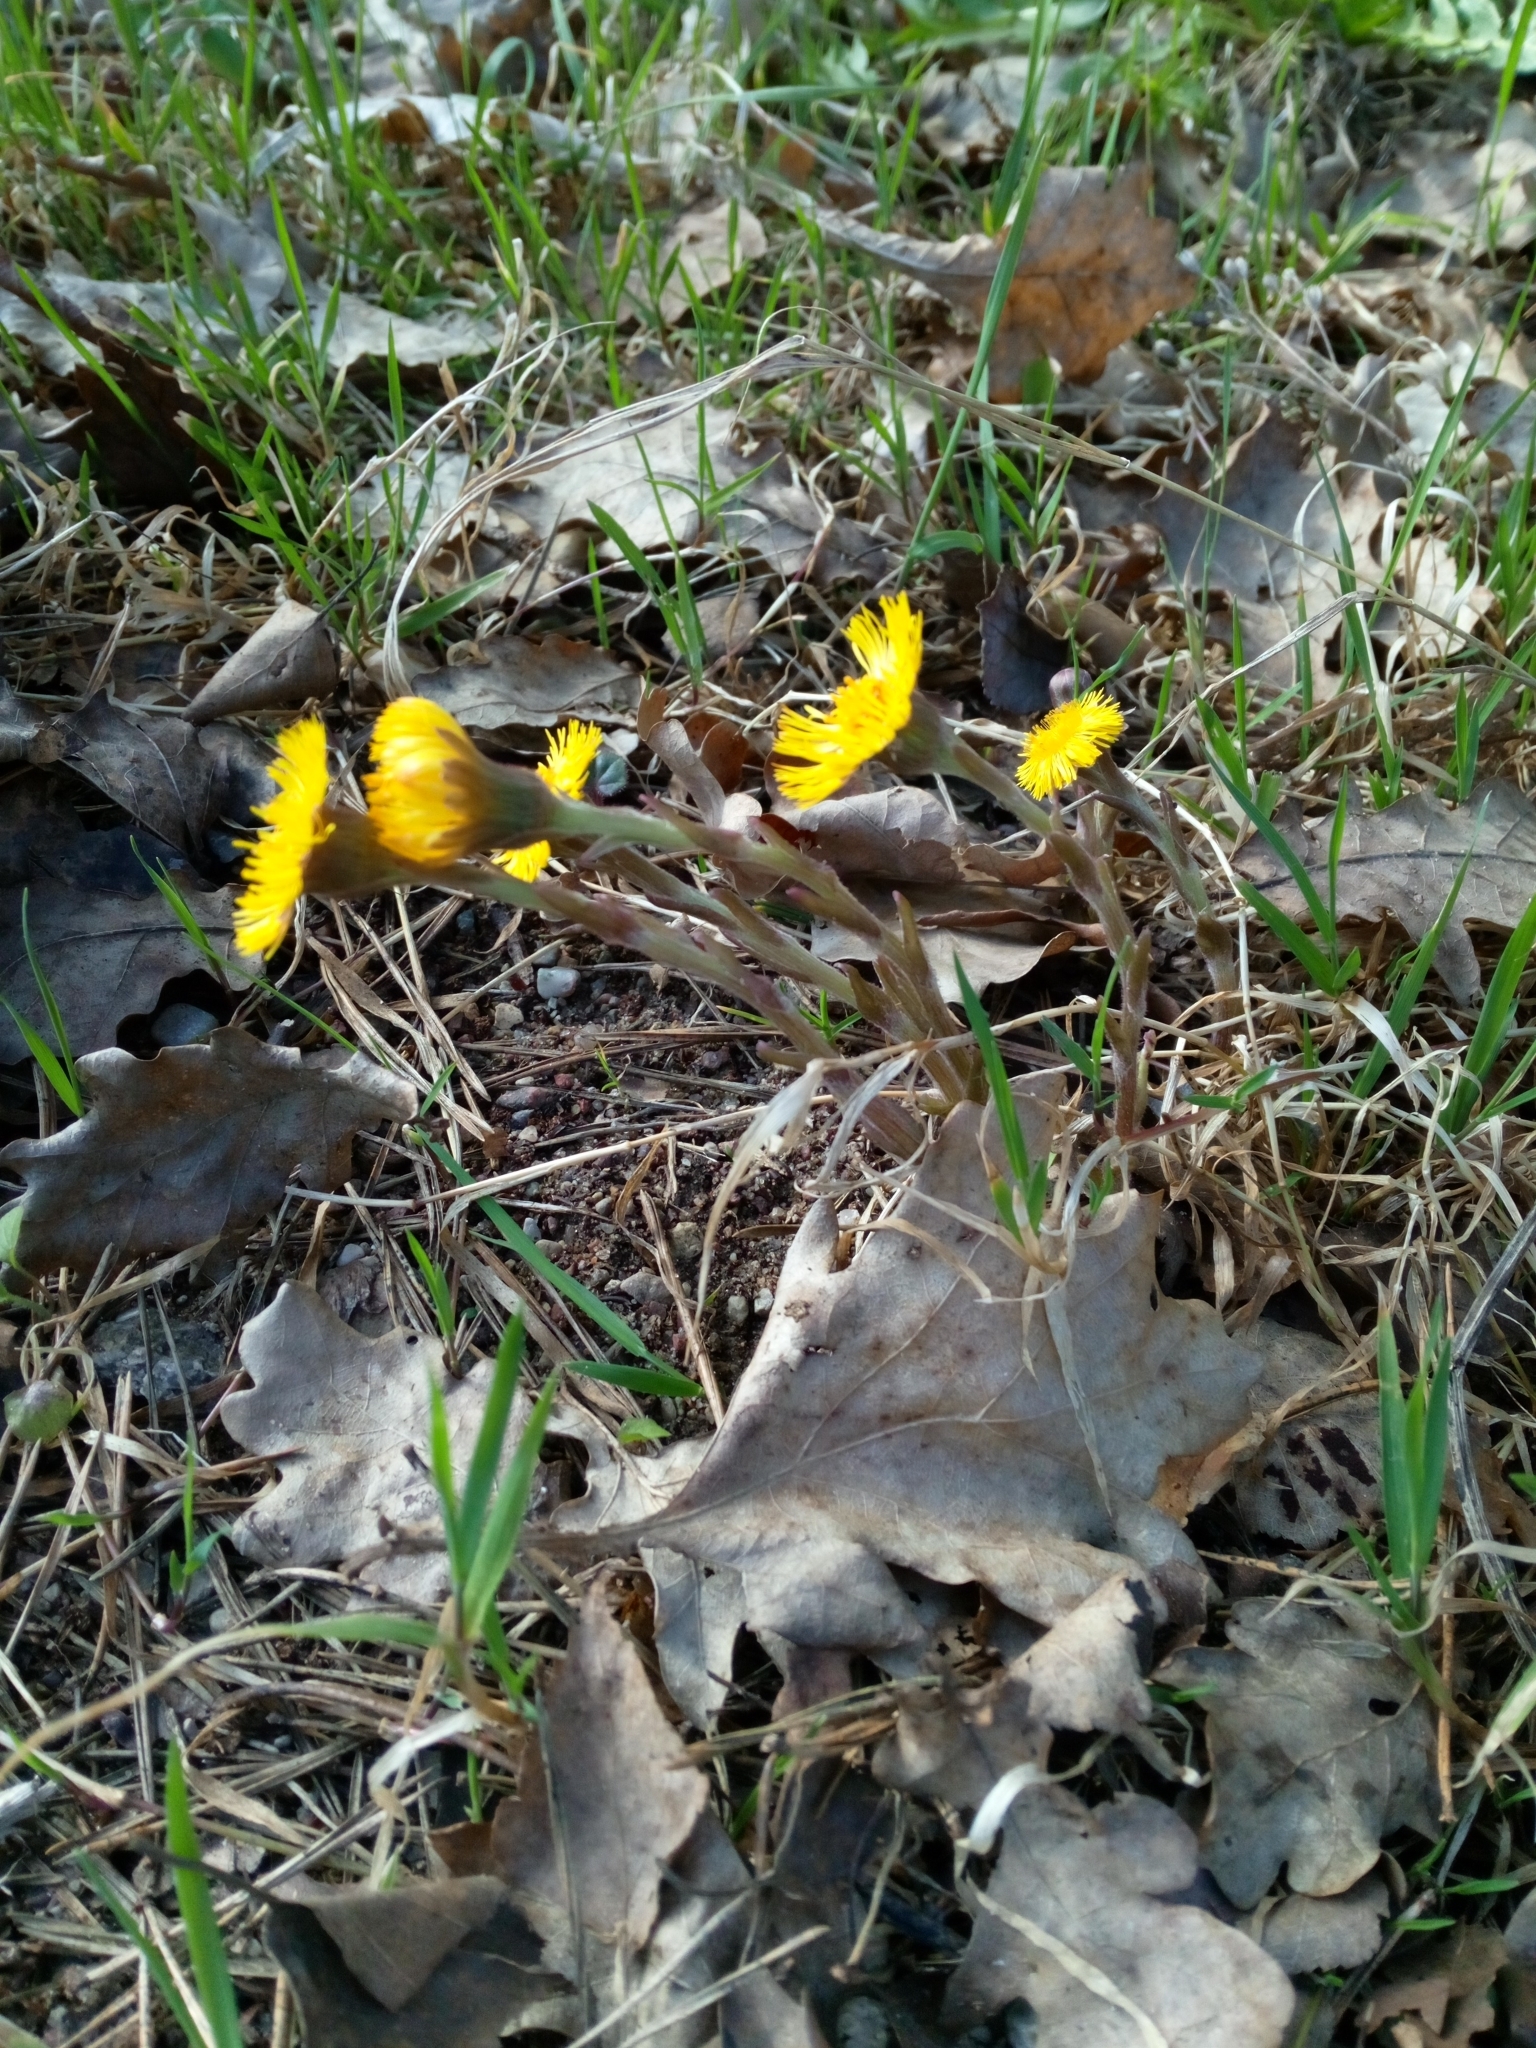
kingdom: Plantae
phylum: Tracheophyta
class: Magnoliopsida
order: Asterales
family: Asteraceae
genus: Tussilago
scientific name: Tussilago farfara
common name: Coltsfoot
